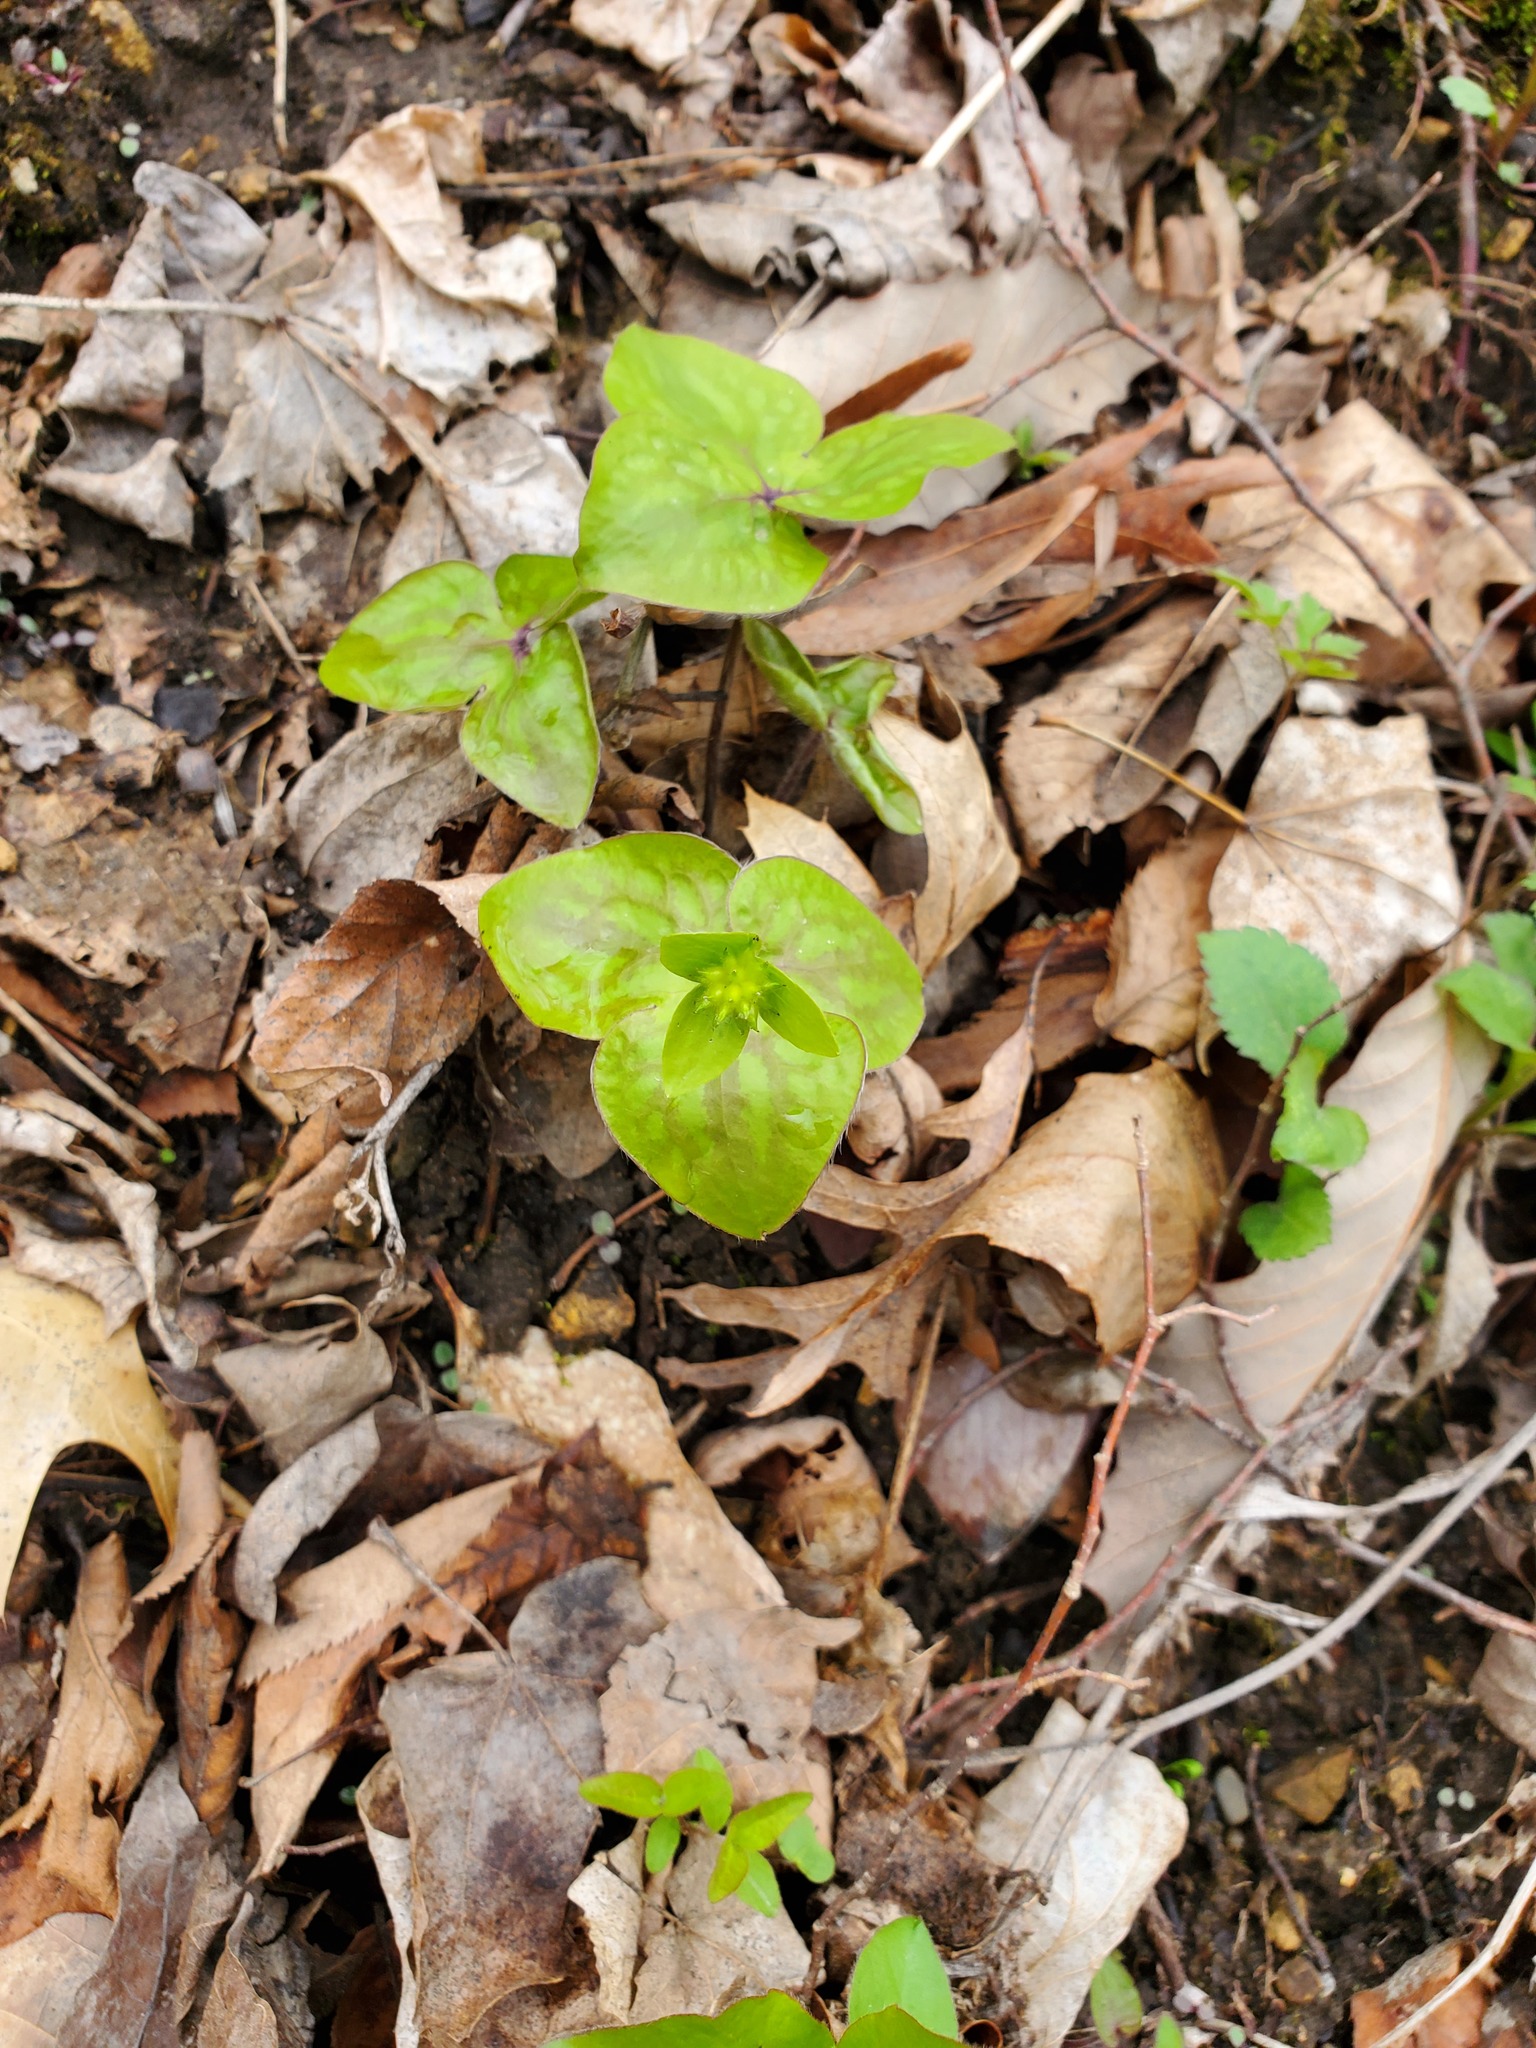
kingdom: Plantae
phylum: Tracheophyta
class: Magnoliopsida
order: Ranunculales
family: Ranunculaceae
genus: Hepatica
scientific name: Hepatica acutiloba
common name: Sharp-lobed hepatica
